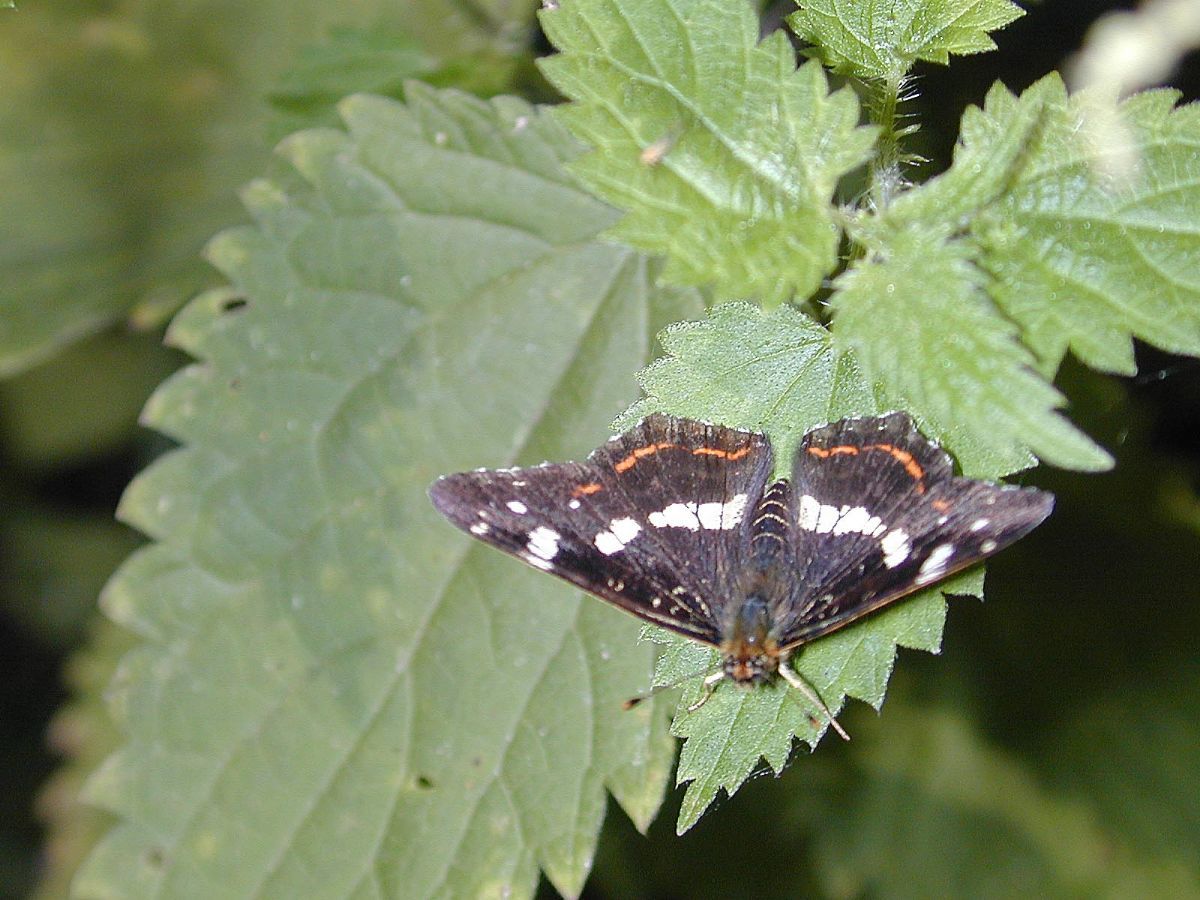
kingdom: Animalia
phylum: Arthropoda
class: Insecta
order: Lepidoptera
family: Nymphalidae
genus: Araschnia
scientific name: Araschnia levana
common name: Map butterfly
